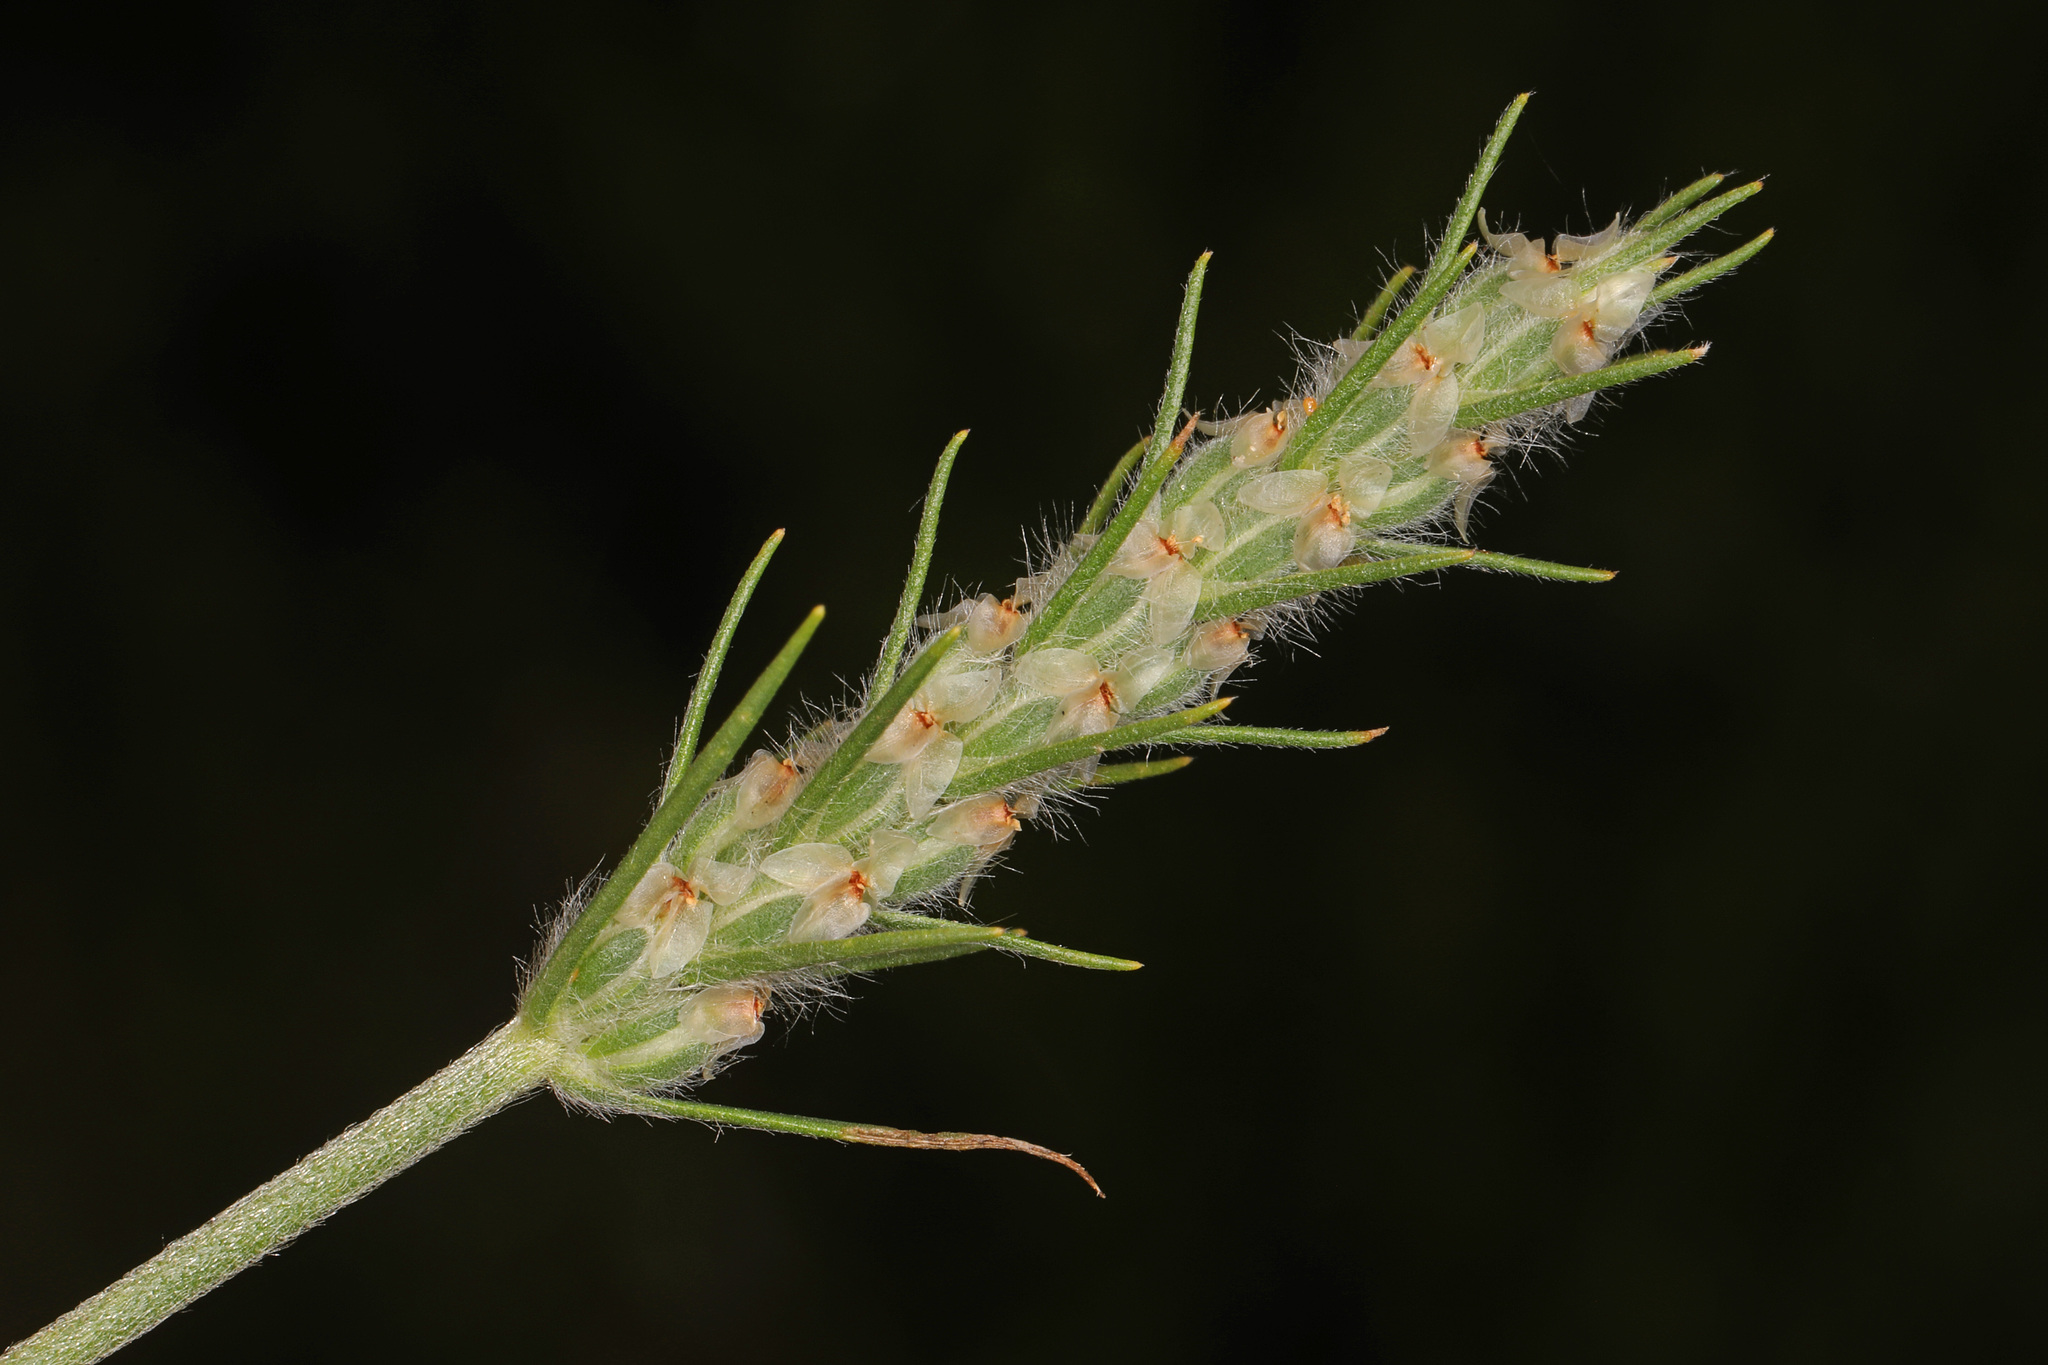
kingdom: Plantae
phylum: Tracheophyta
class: Magnoliopsida
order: Lamiales
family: Plantaginaceae
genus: Plantago
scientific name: Plantago aristata
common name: Bracted plantain
